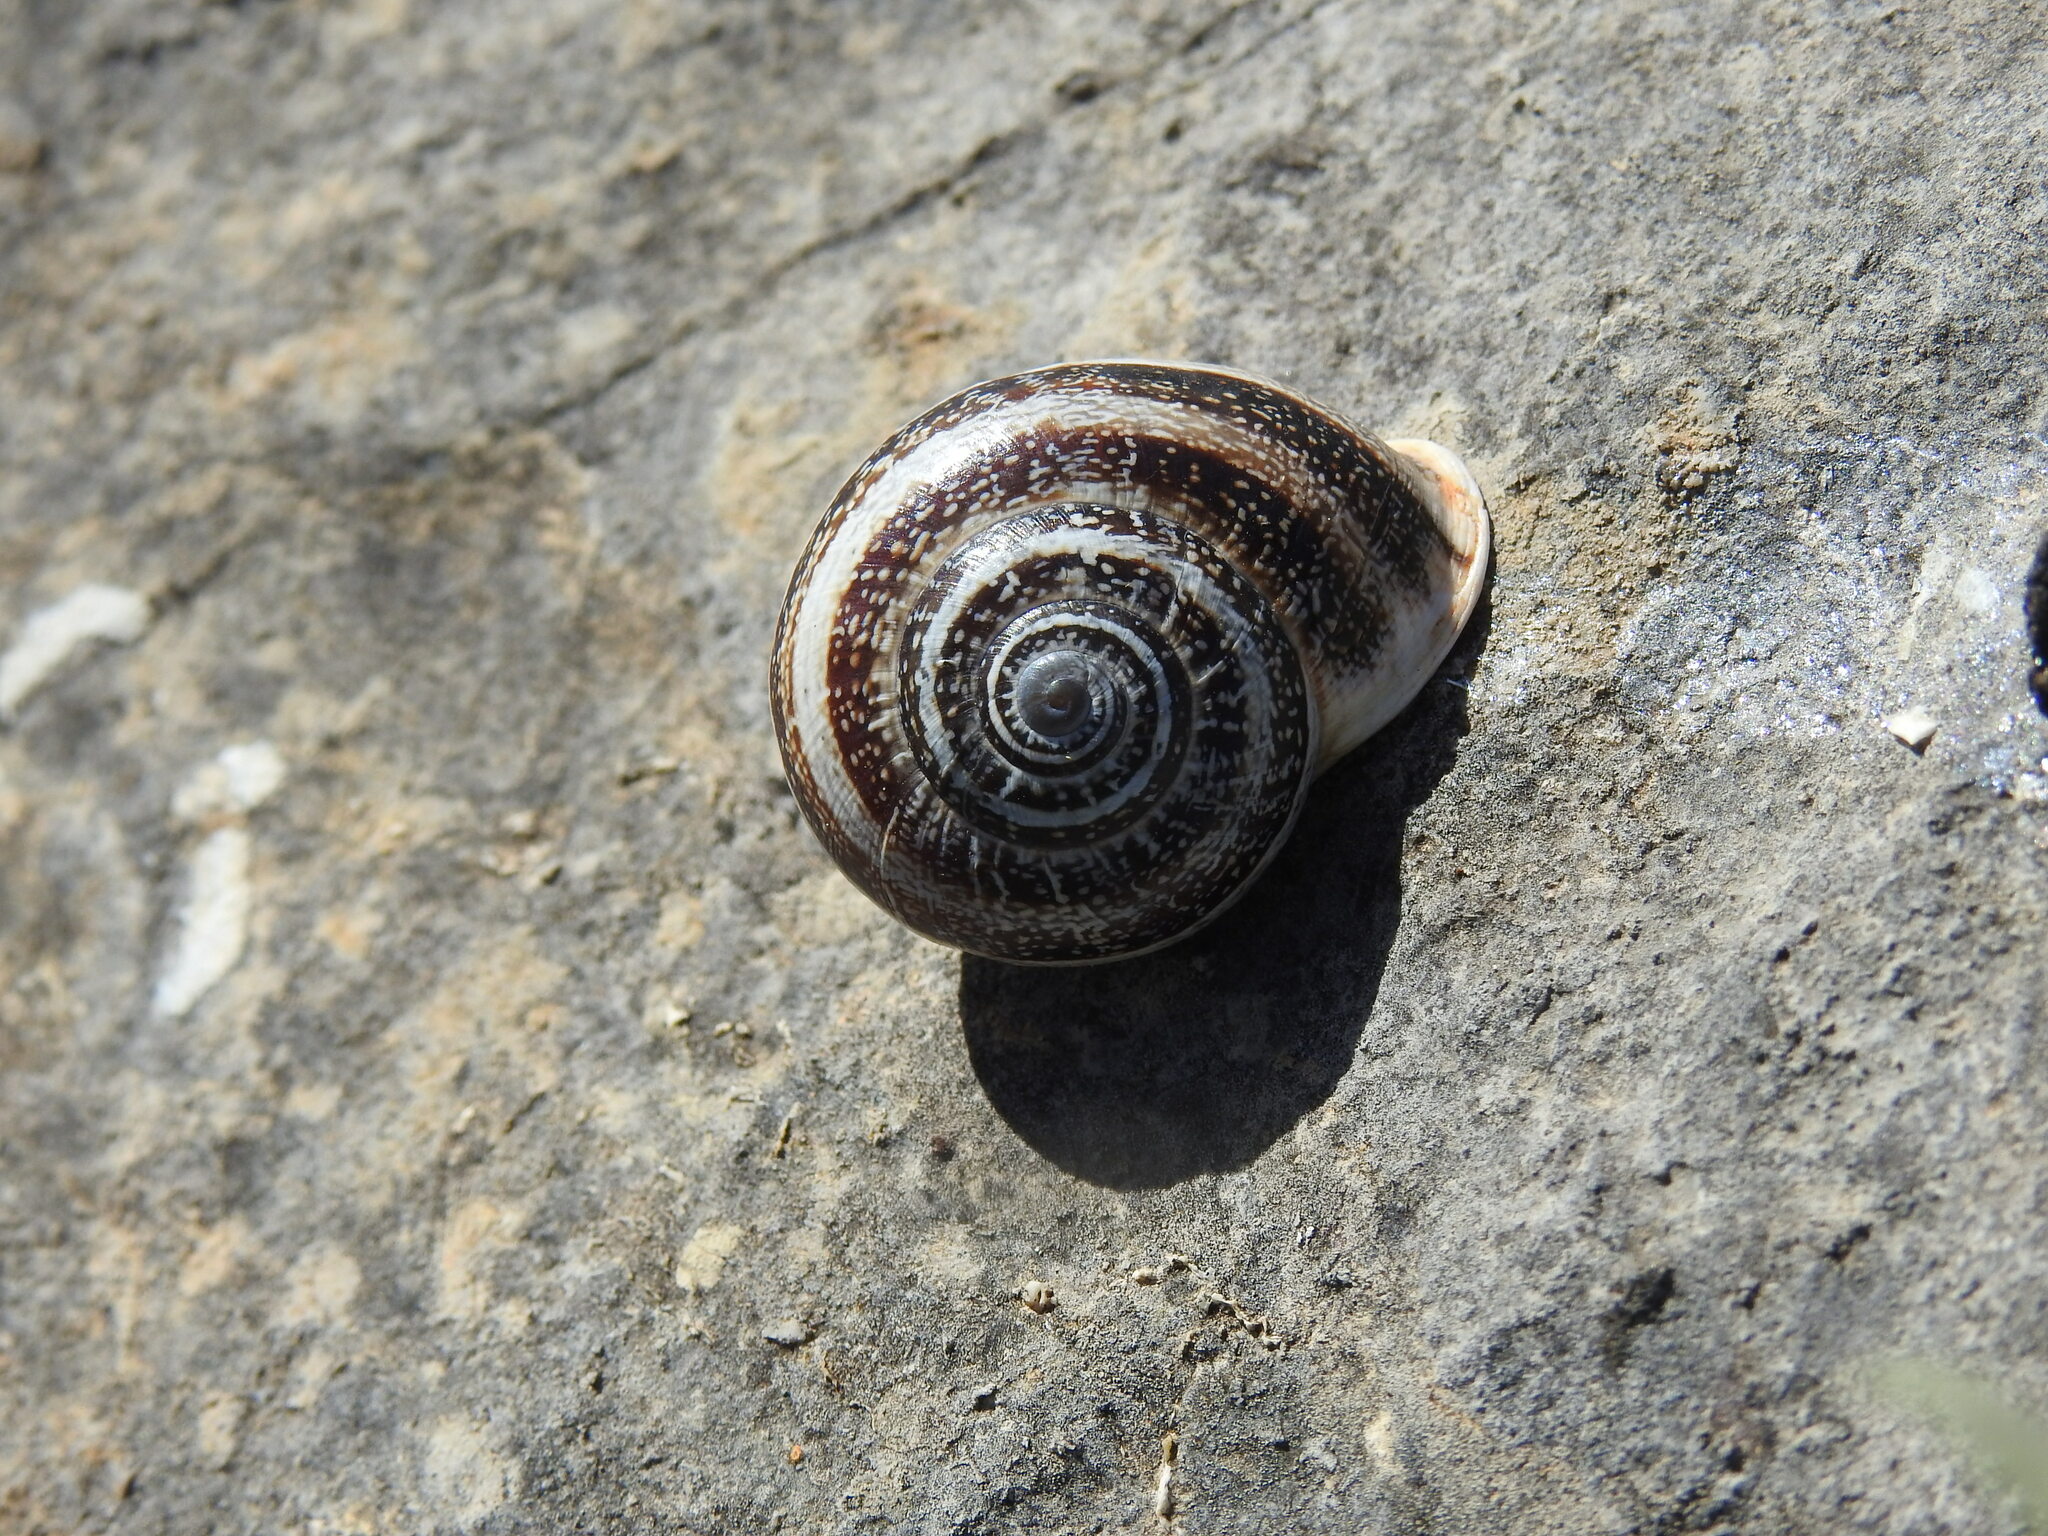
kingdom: Animalia
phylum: Mollusca
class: Gastropoda
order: Stylommatophora
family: Helicidae
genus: Otala
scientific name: Otala lactea
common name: Milk snail
